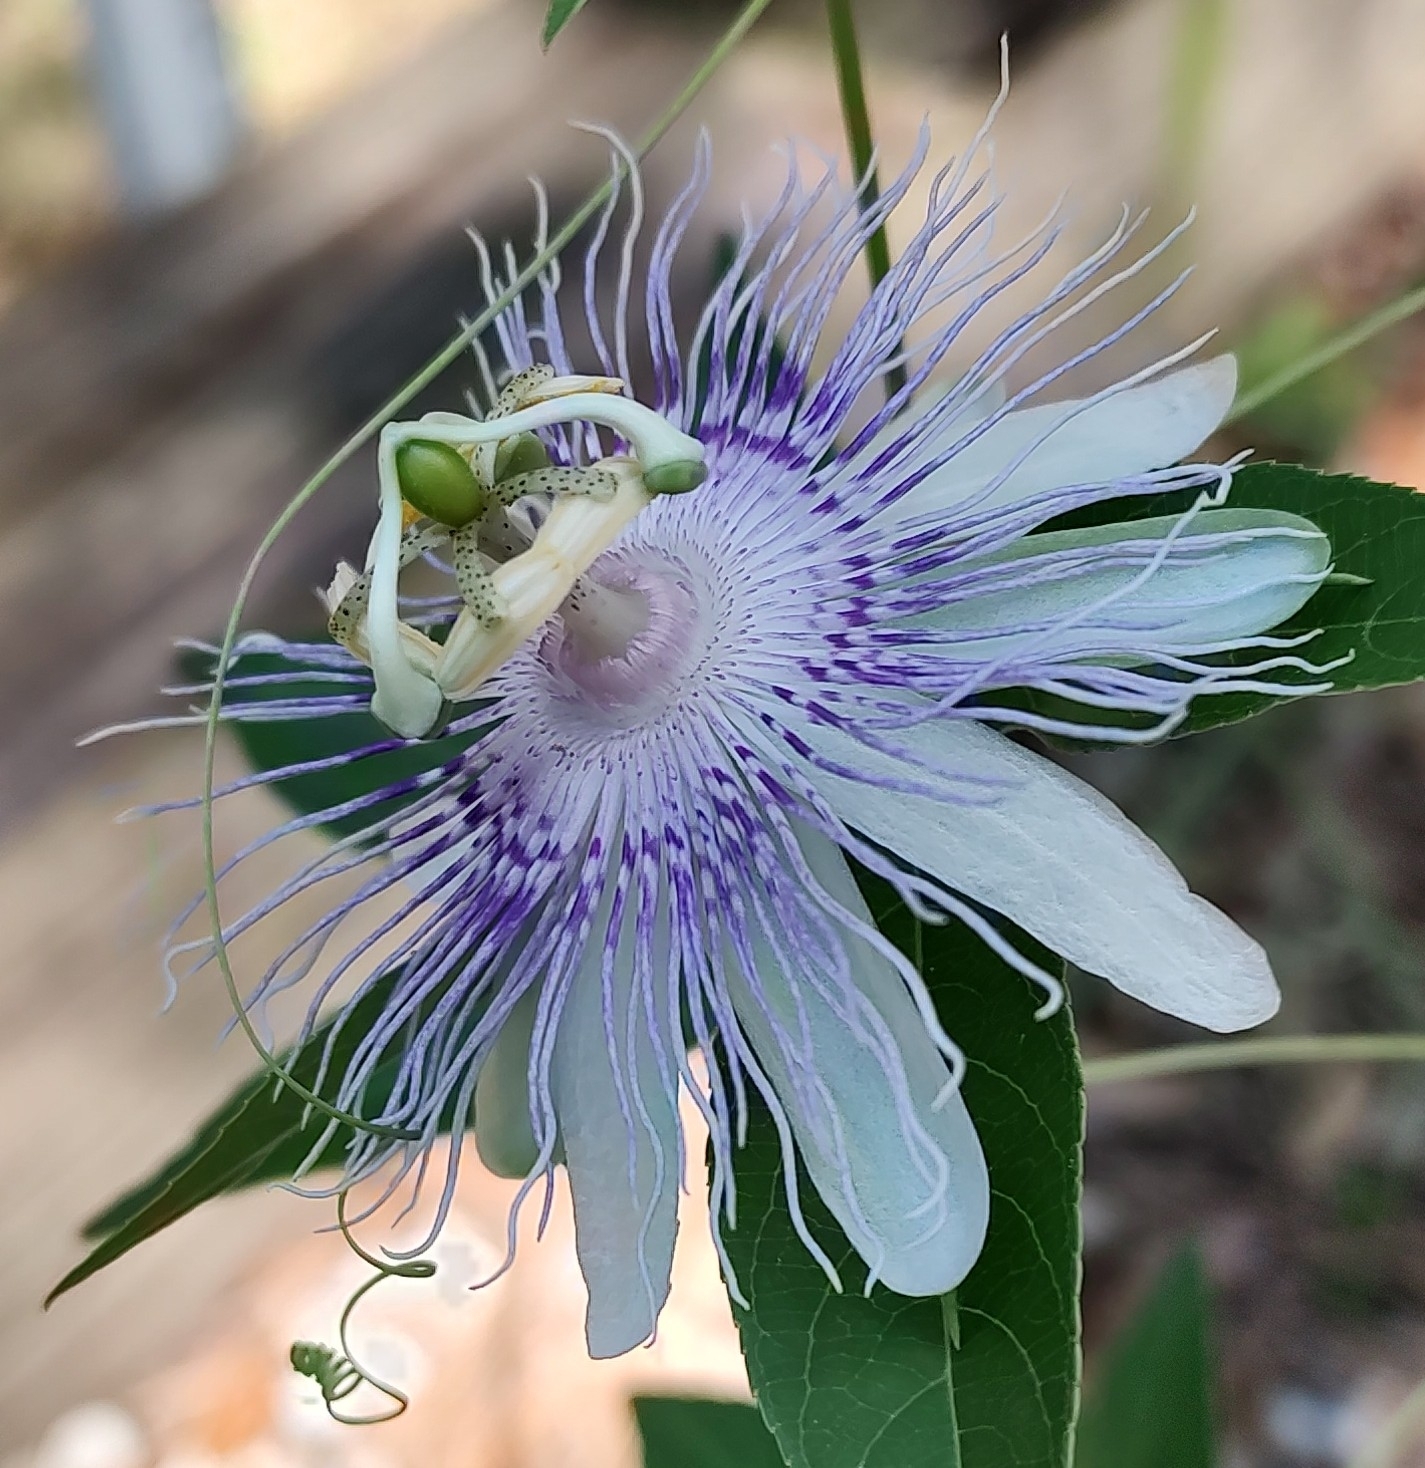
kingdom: Plantae
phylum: Tracheophyta
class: Magnoliopsida
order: Malpighiales
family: Passifloraceae
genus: Passiflora
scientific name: Passiflora incarnata
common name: Apricot-vine
